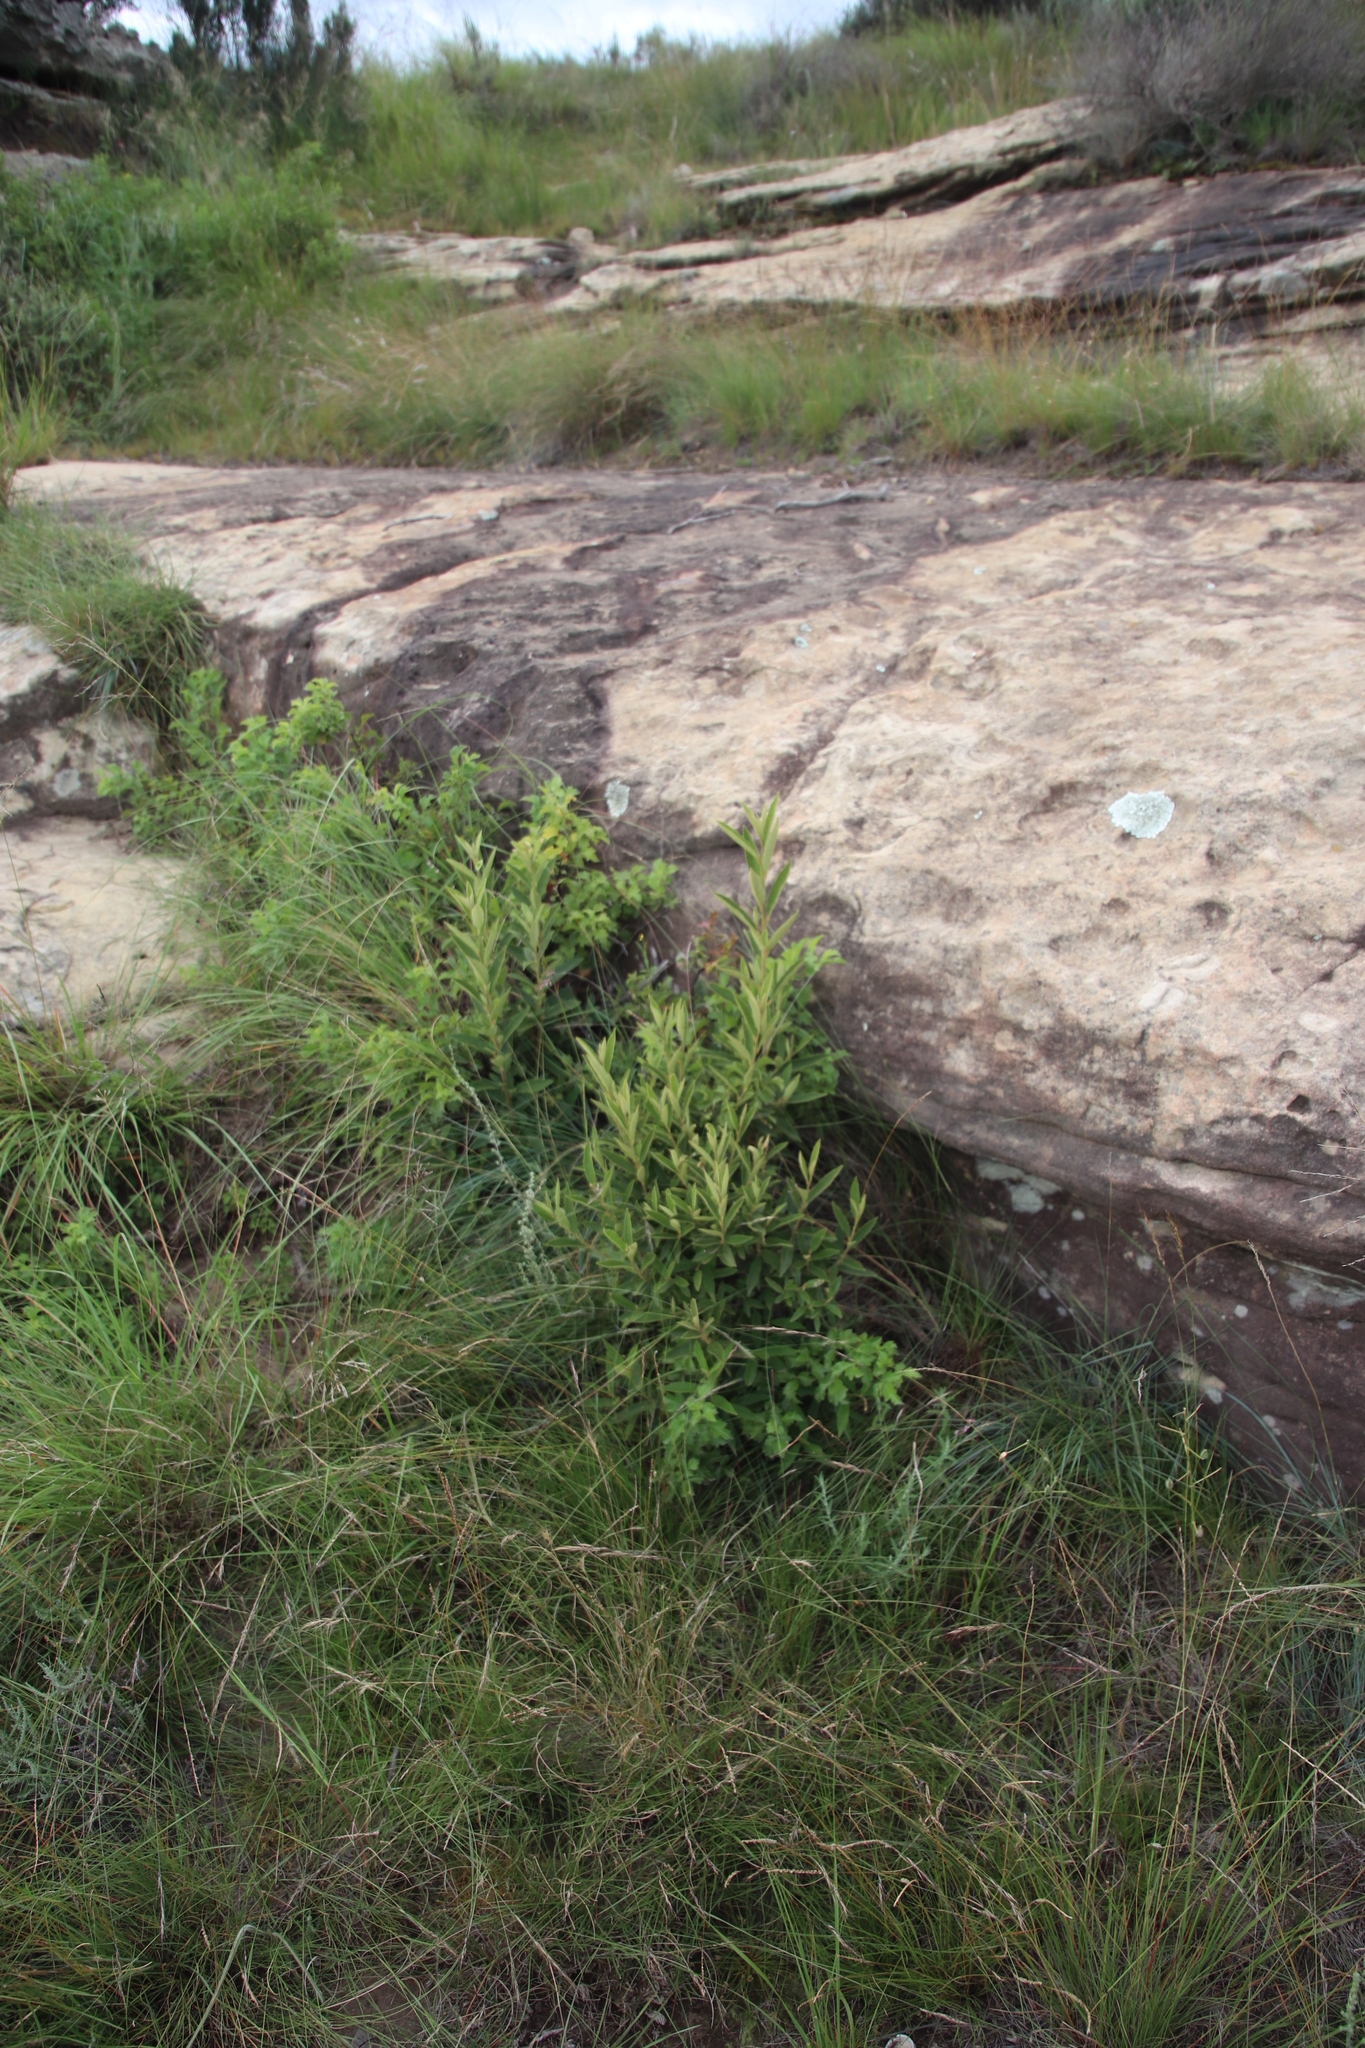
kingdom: Plantae
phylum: Tracheophyta
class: Magnoliopsida
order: Malpighiales
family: Achariaceae
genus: Kiggelaria
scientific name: Kiggelaria africana
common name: Wild peach
